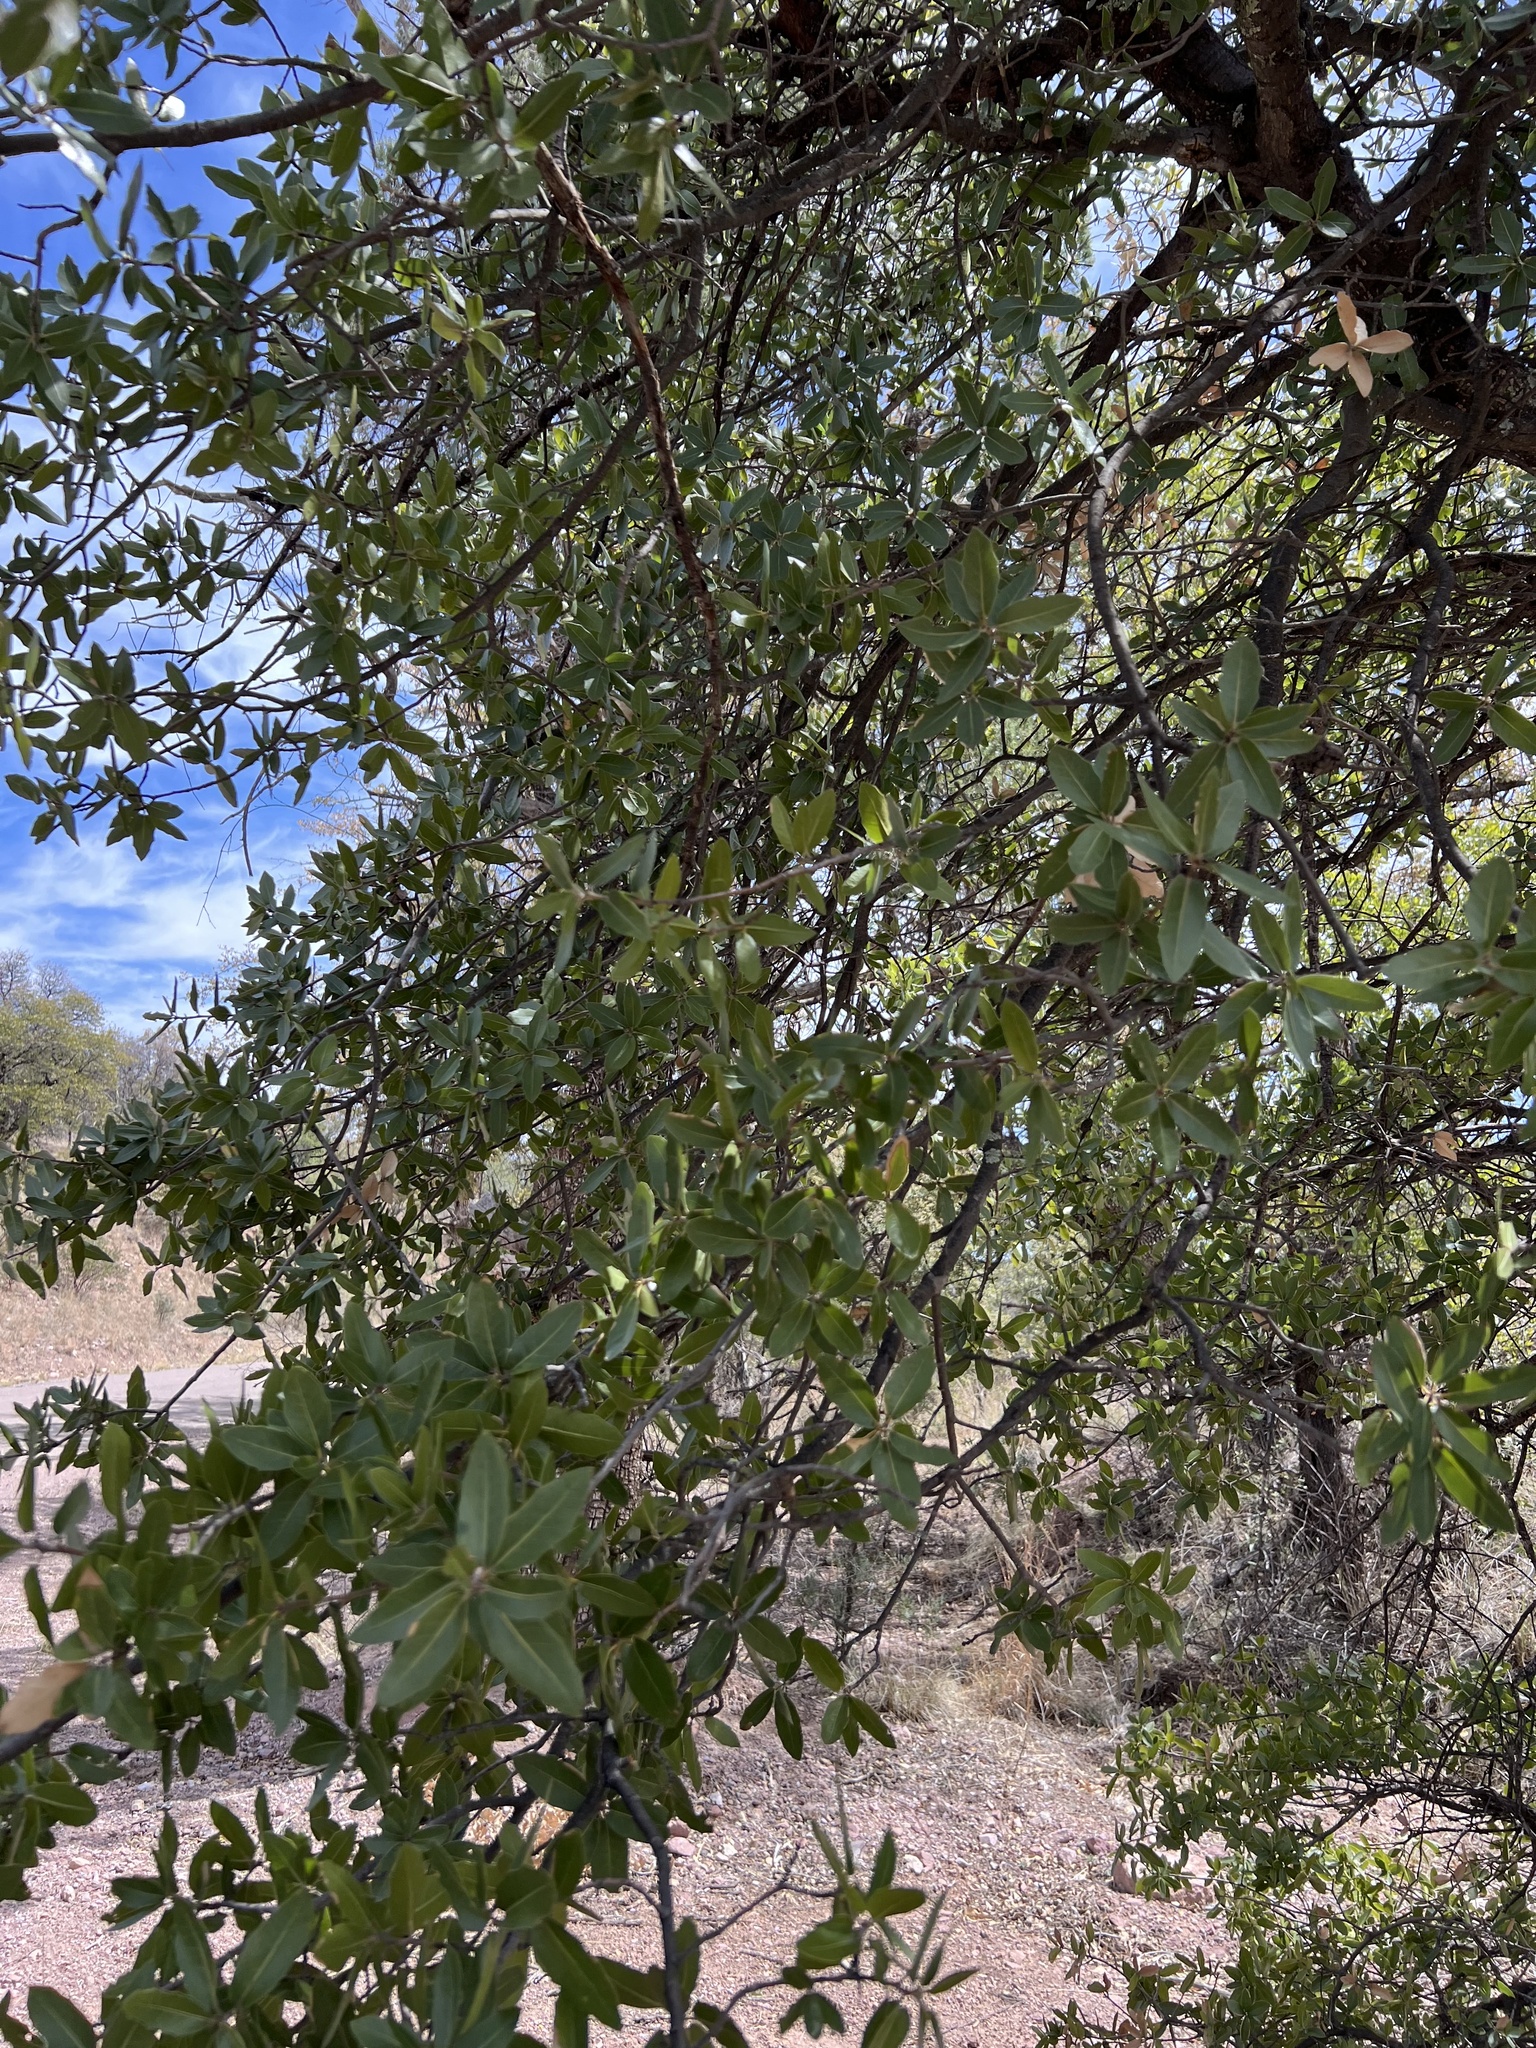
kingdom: Plantae
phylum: Tracheophyta
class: Magnoliopsida
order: Fagales
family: Fagaceae
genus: Quercus
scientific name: Quercus emoryi
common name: Emory oak
